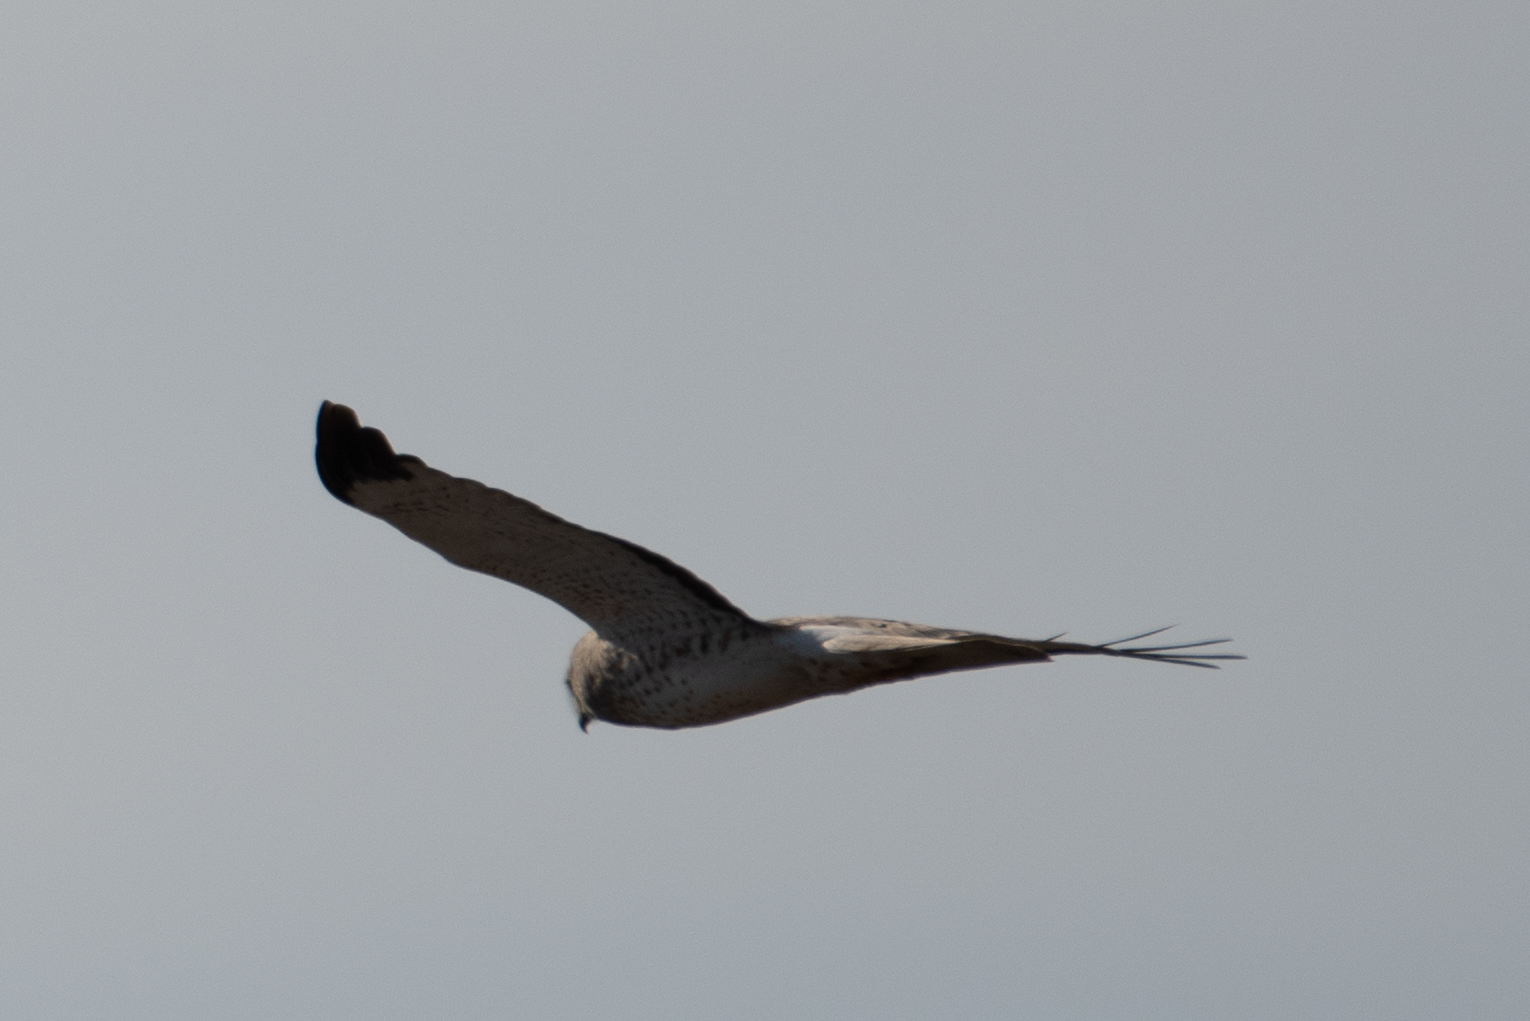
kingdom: Animalia
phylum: Chordata
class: Aves
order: Accipitriformes
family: Accipitridae
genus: Circus
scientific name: Circus cyaneus
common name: Hen harrier
